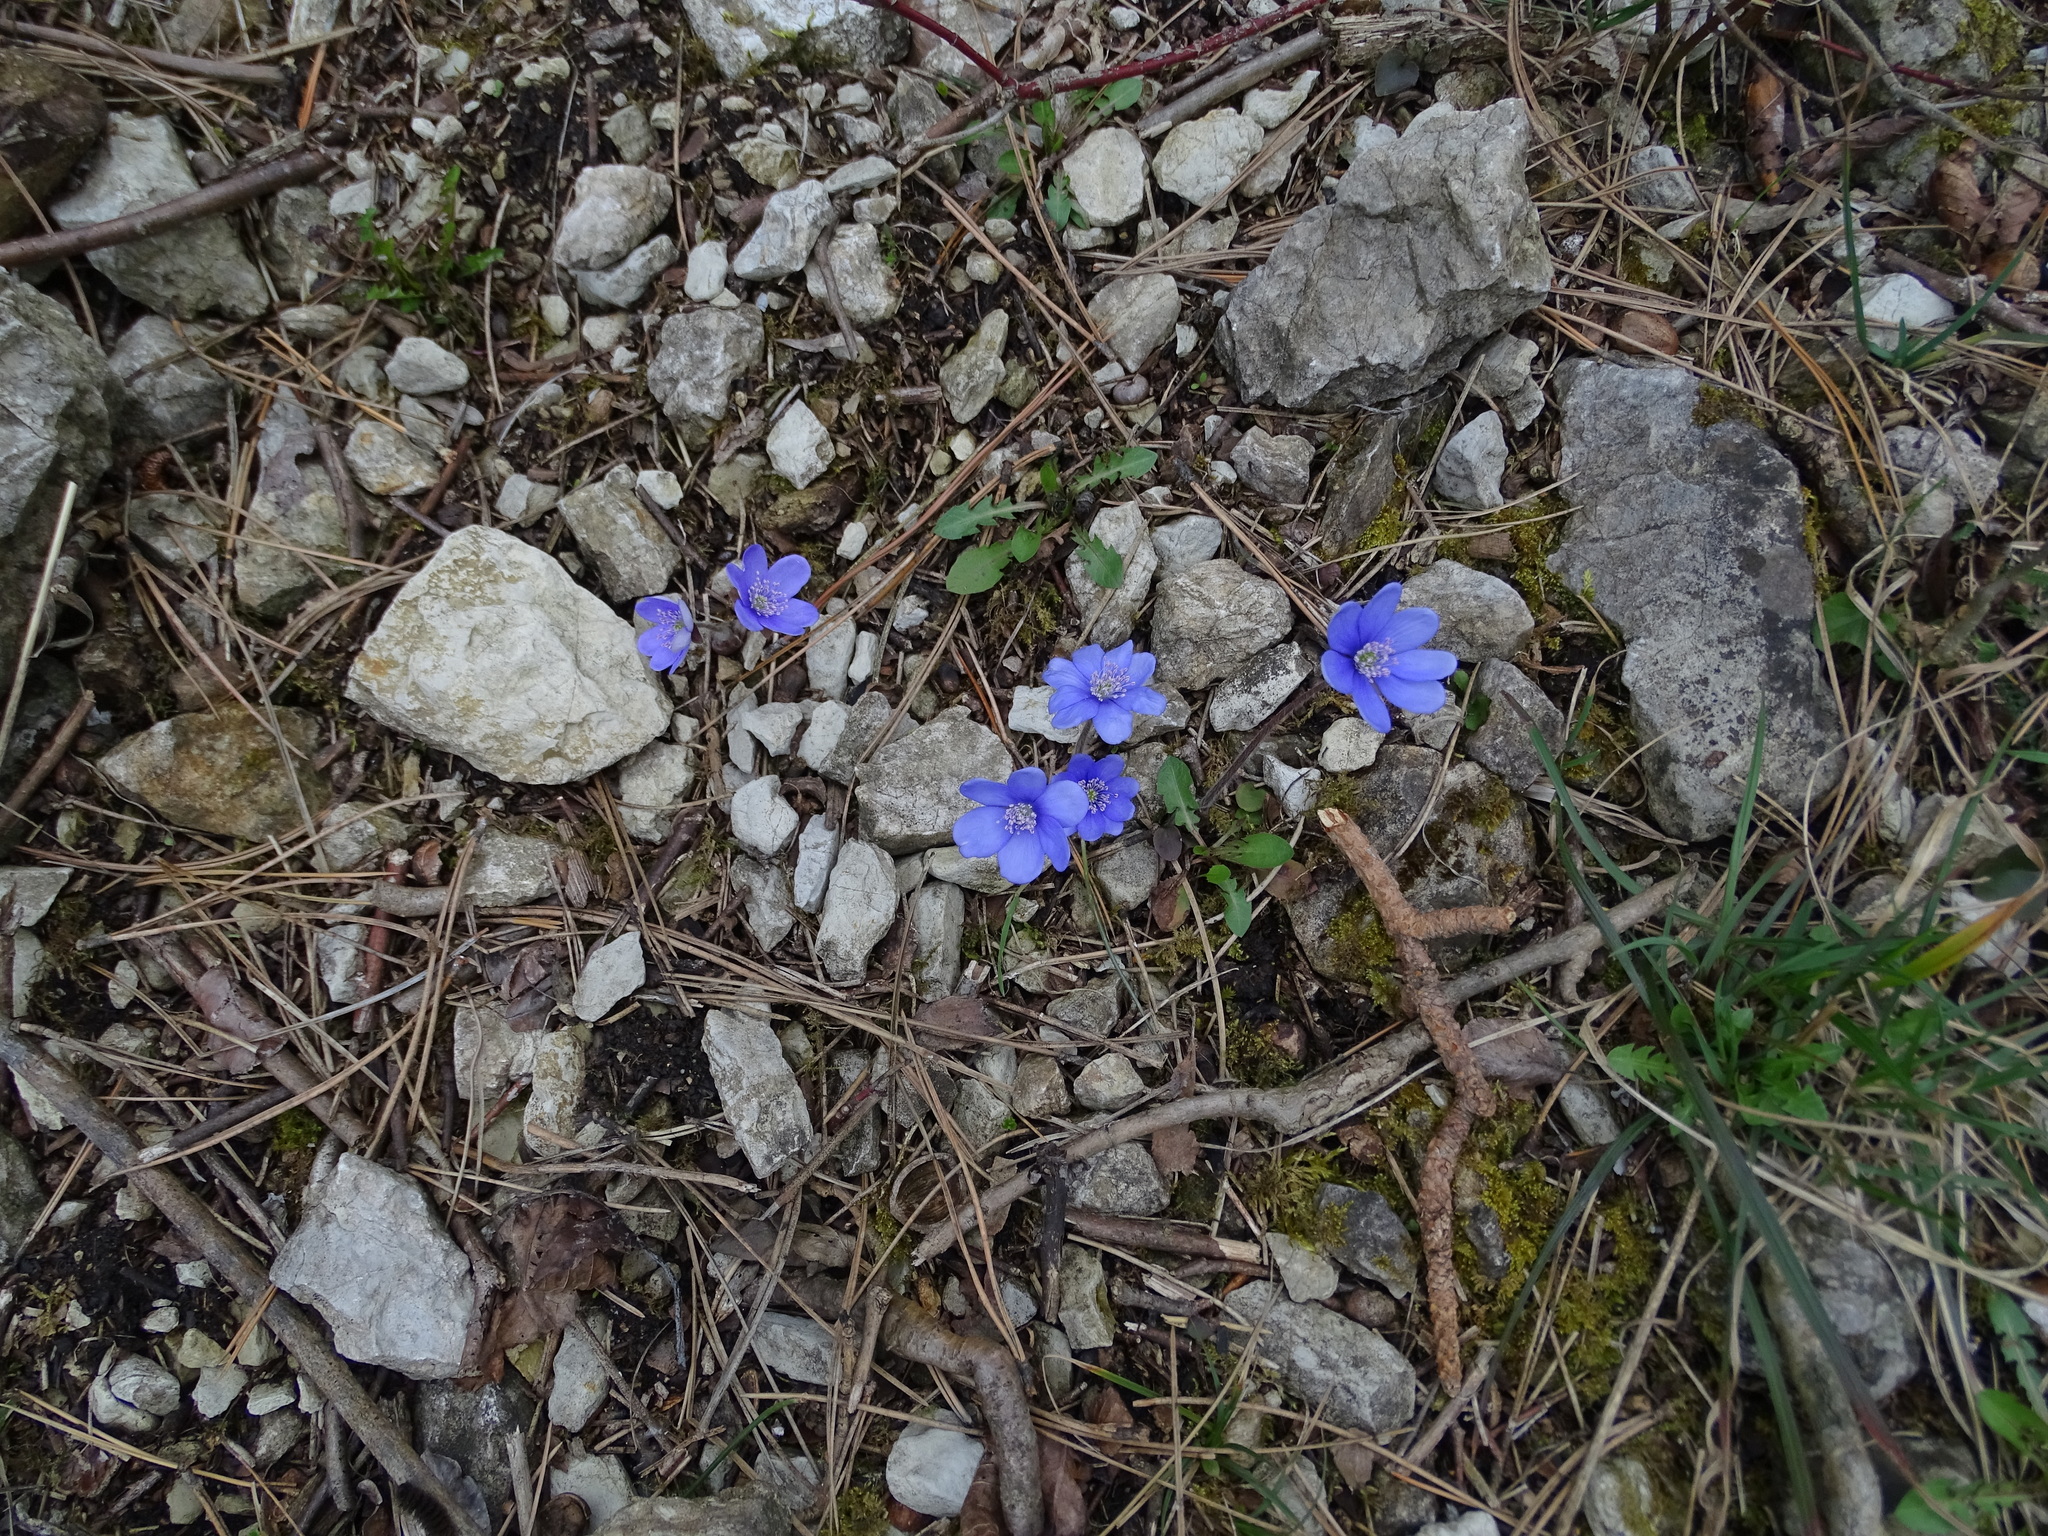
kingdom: Plantae
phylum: Tracheophyta
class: Magnoliopsida
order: Ranunculales
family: Ranunculaceae
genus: Hepatica
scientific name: Hepatica nobilis
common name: Liverleaf
